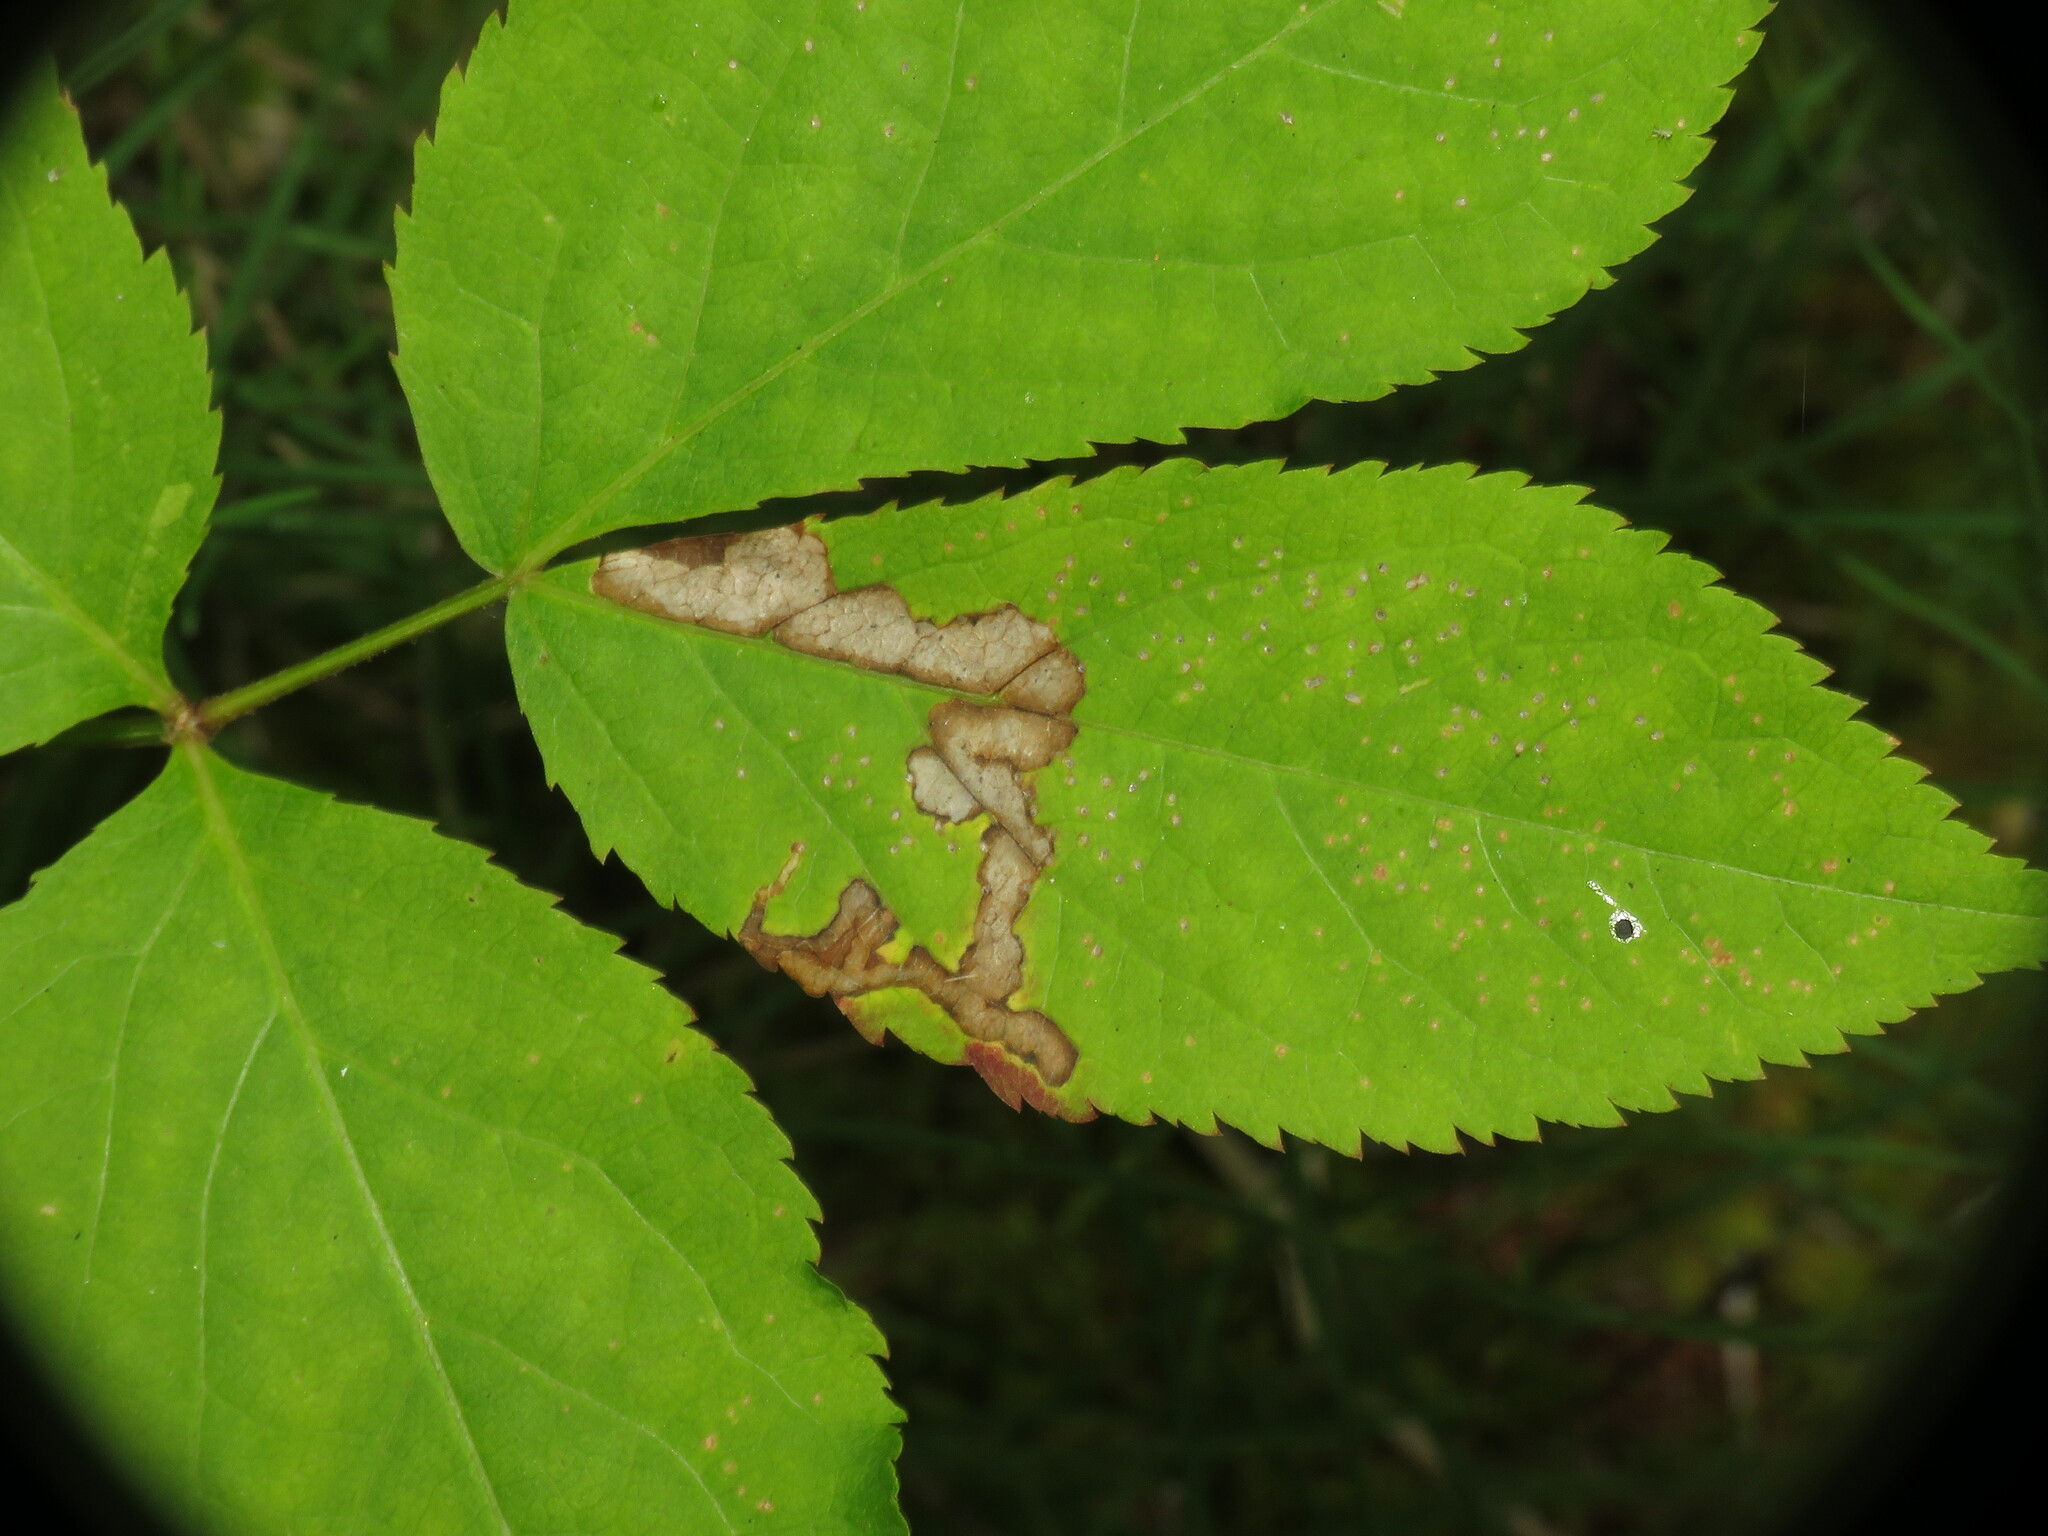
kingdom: Animalia
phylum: Arthropoda
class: Insecta
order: Diptera
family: Agromyzidae
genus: Phytomyza
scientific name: Phytomyza aralivora
